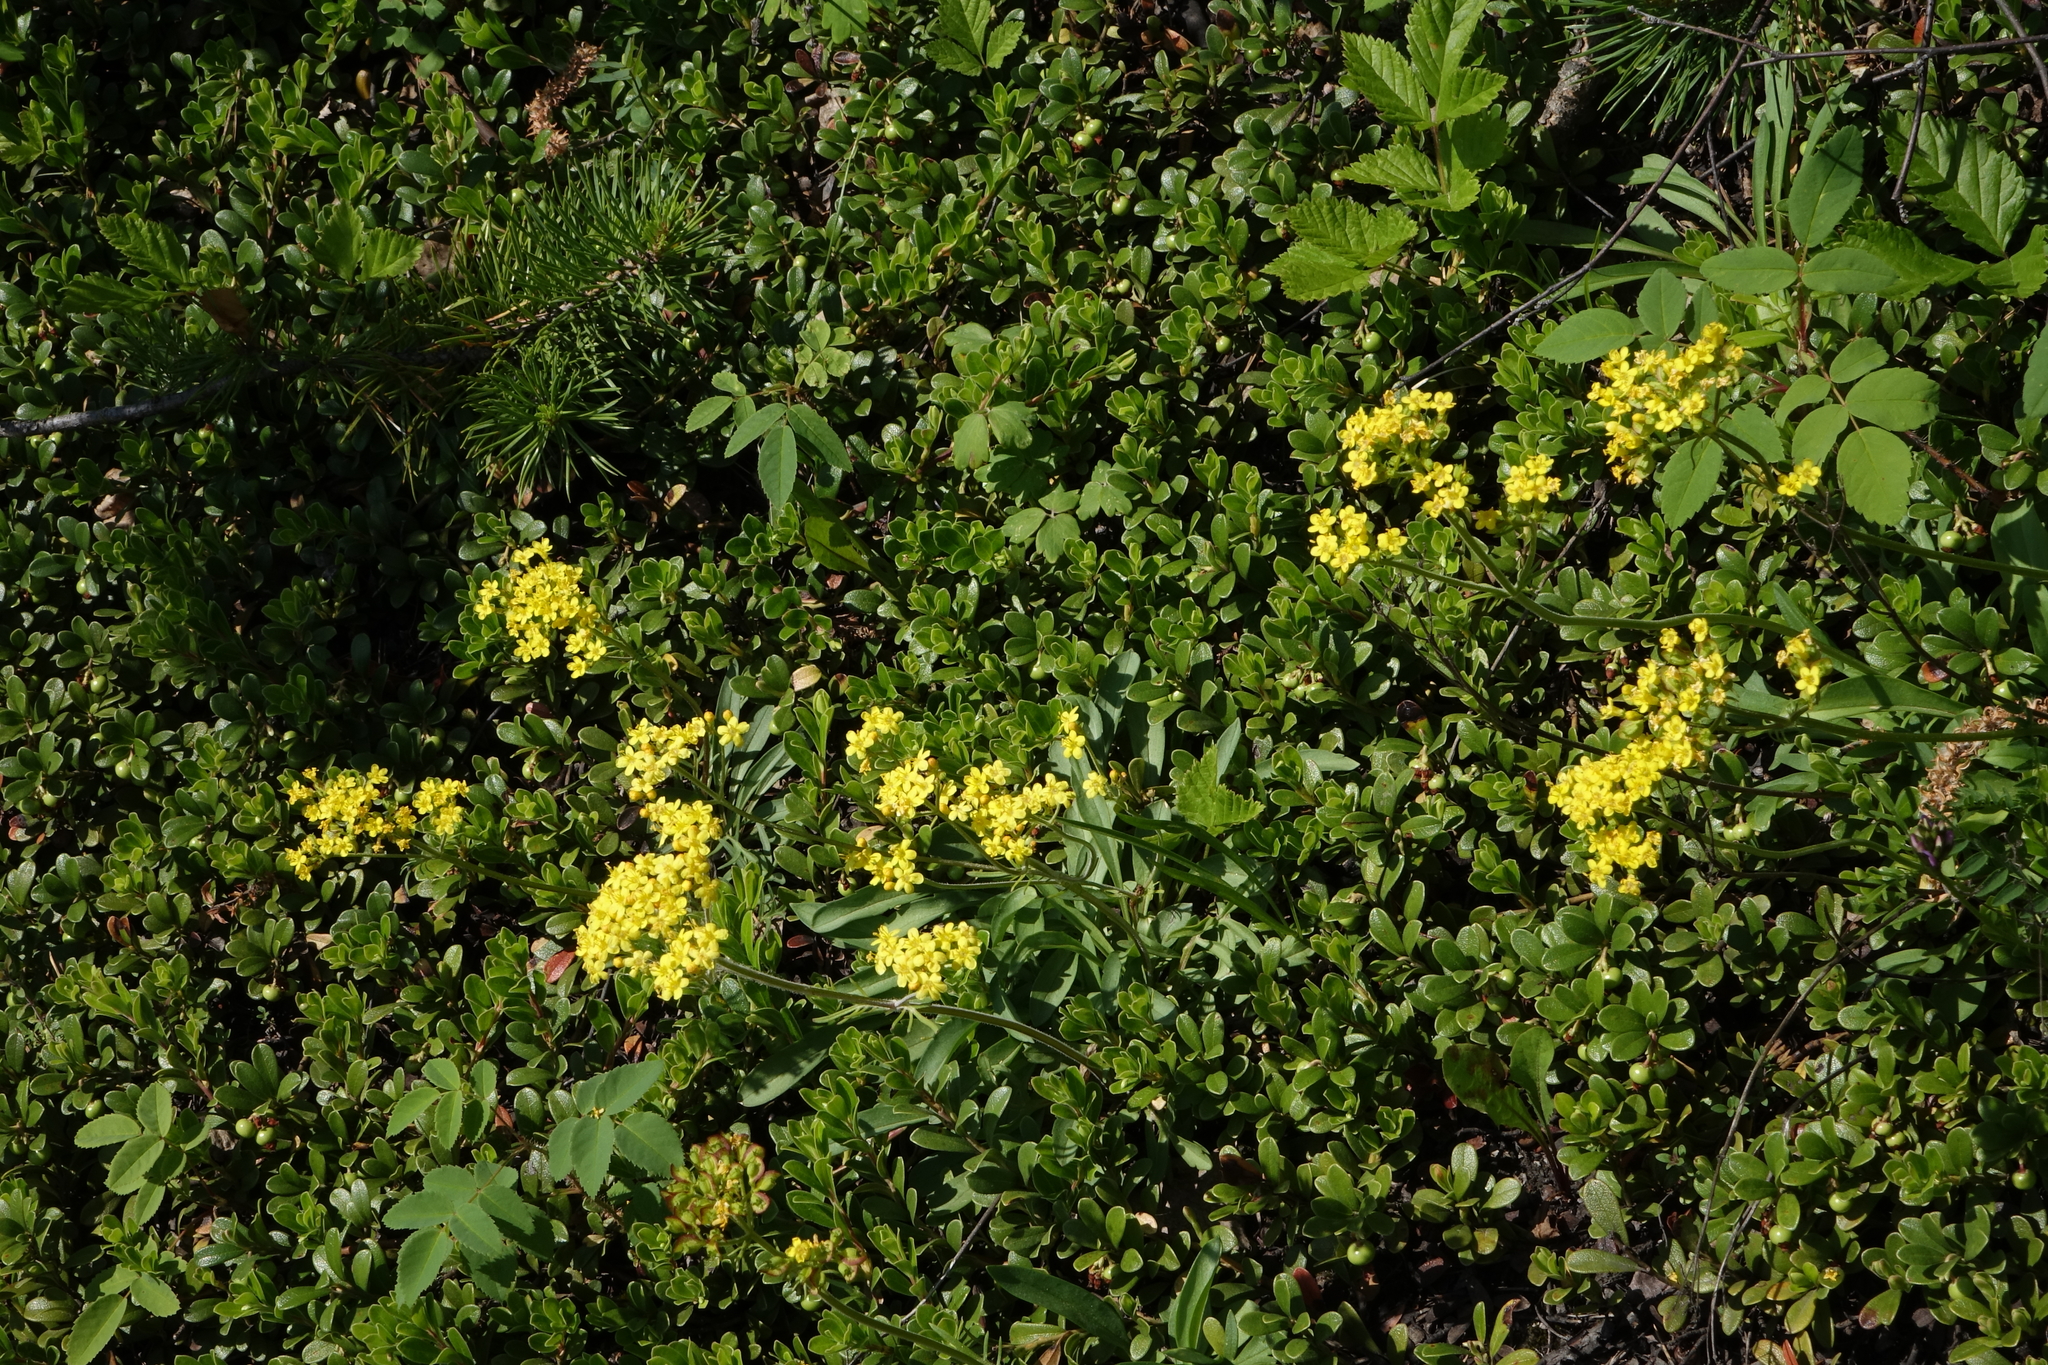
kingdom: Plantae
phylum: Tracheophyta
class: Magnoliopsida
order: Dipsacales
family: Caprifoliaceae
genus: Patrinia
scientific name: Patrinia sibirica
